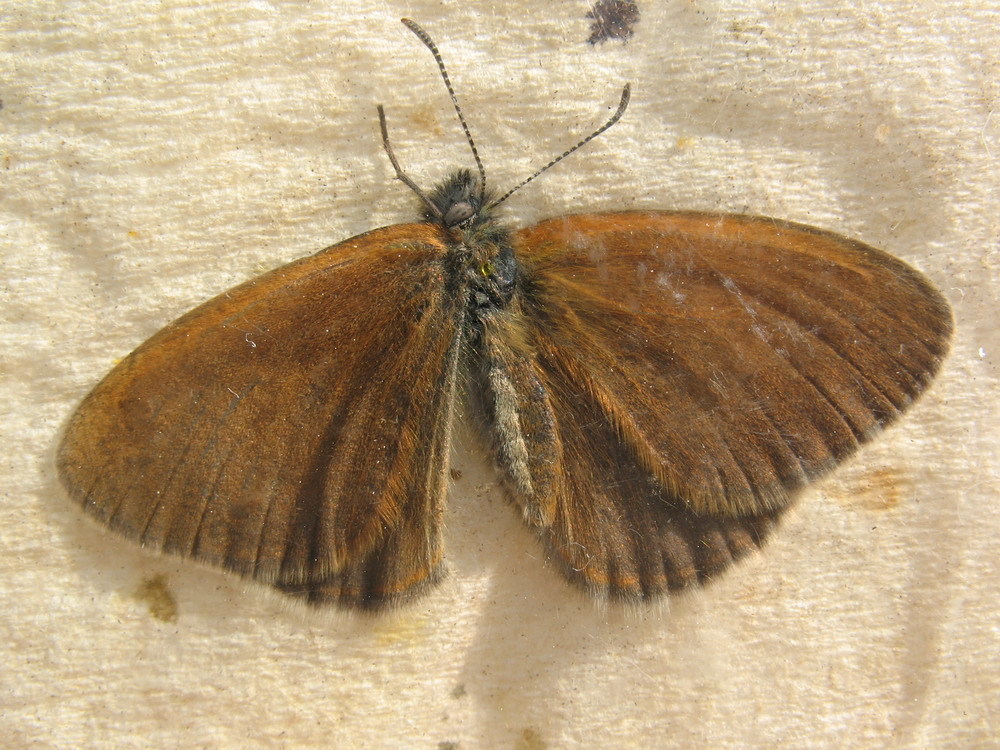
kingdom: Animalia
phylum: Arthropoda
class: Insecta
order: Lepidoptera
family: Nymphalidae
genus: Coenonympha
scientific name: Coenonympha iphis
